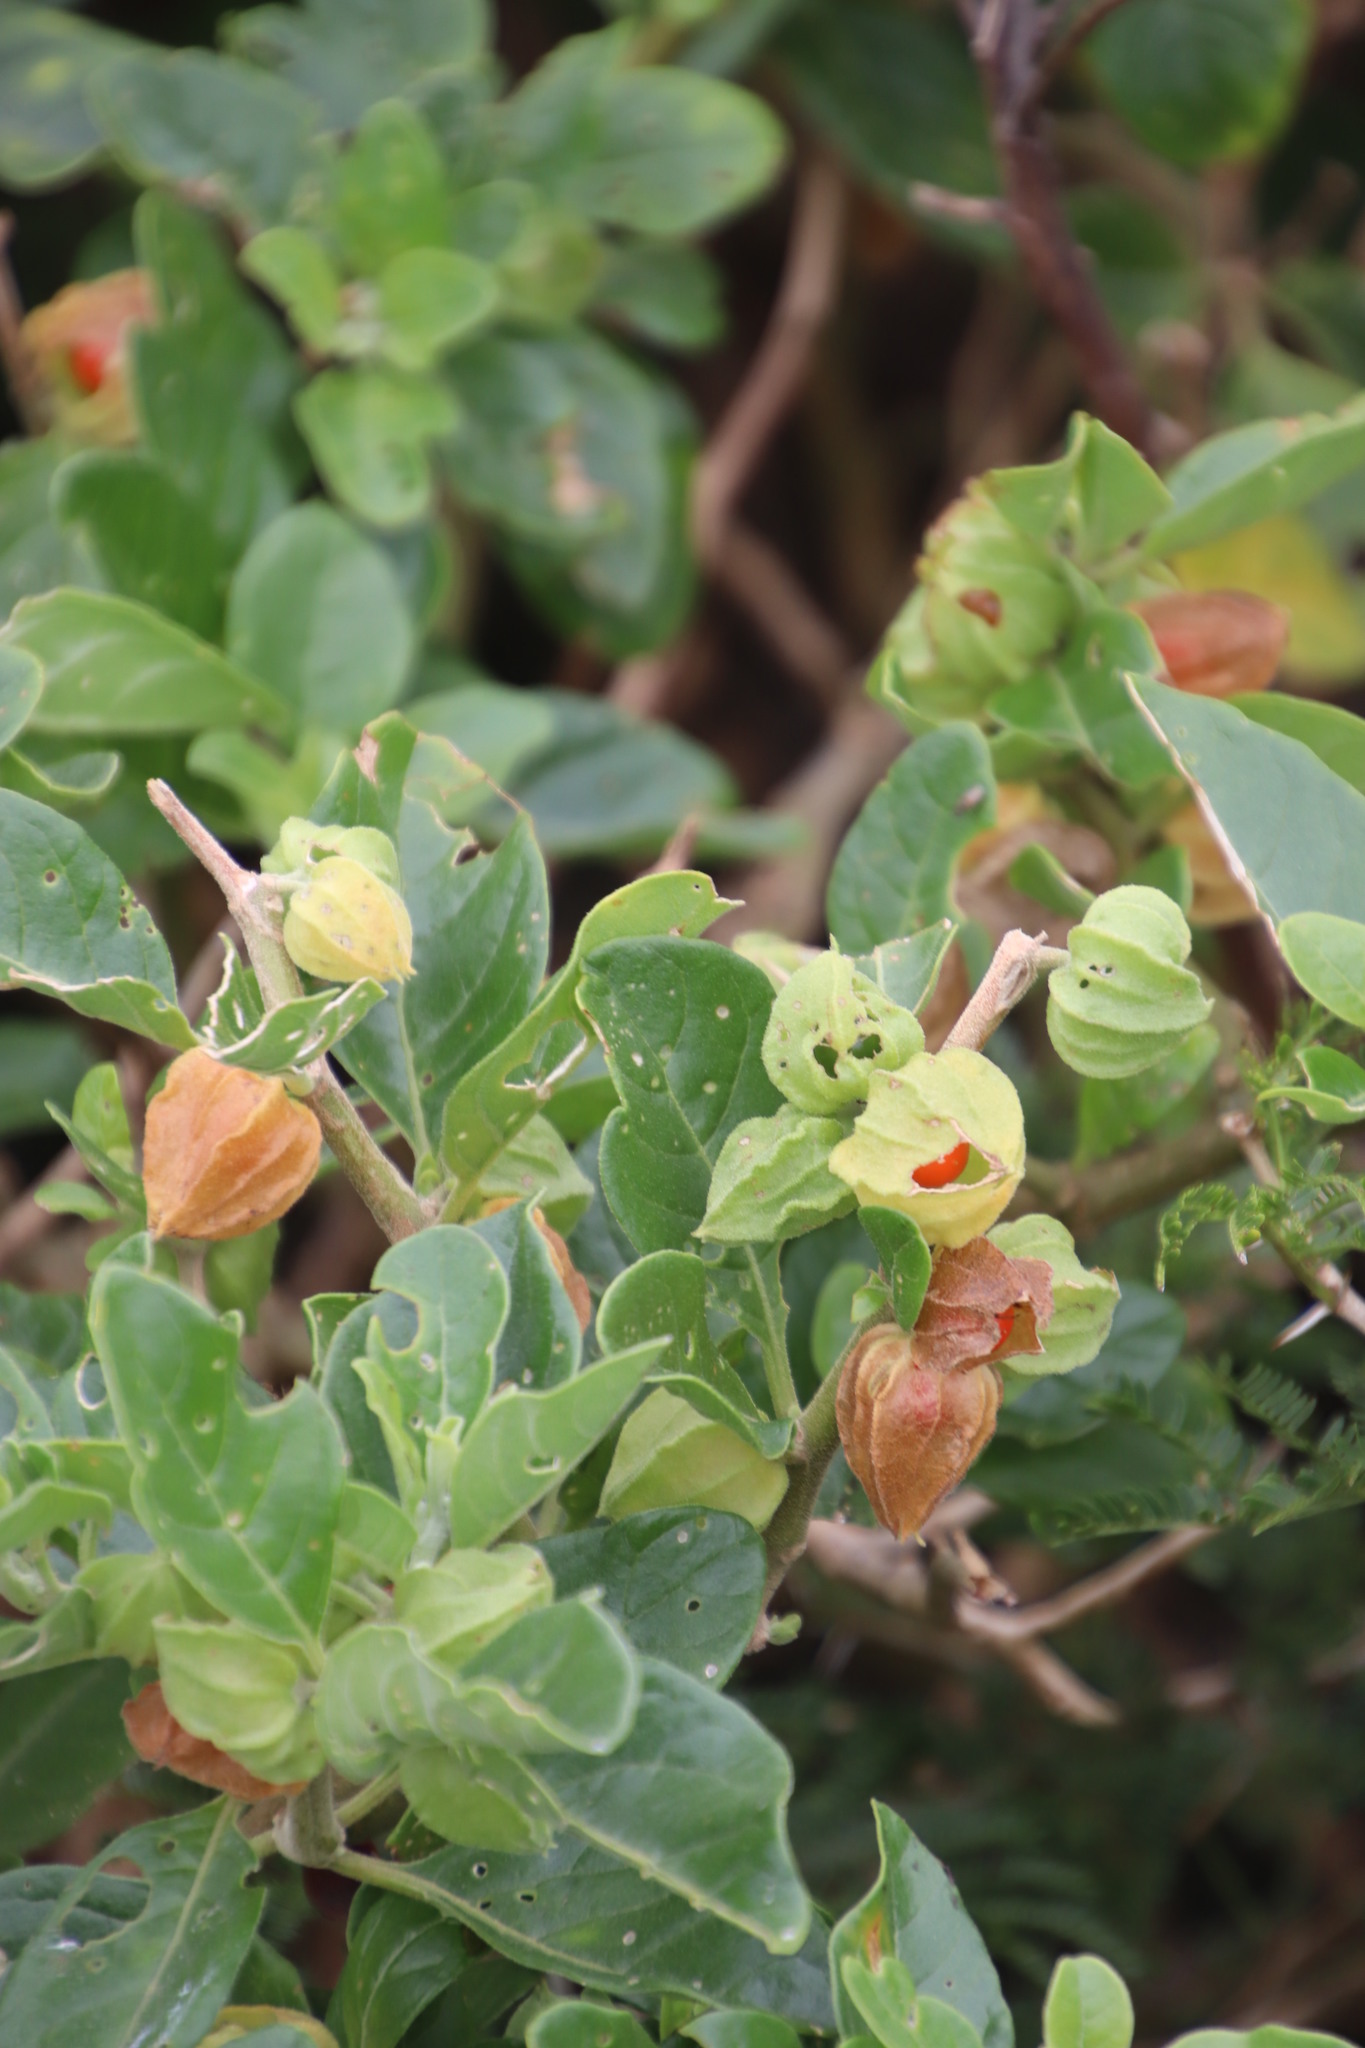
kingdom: Plantae
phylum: Tracheophyta
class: Magnoliopsida
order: Solanales
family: Solanaceae
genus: Withania
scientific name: Withania somnifera
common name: Winter-cherry
